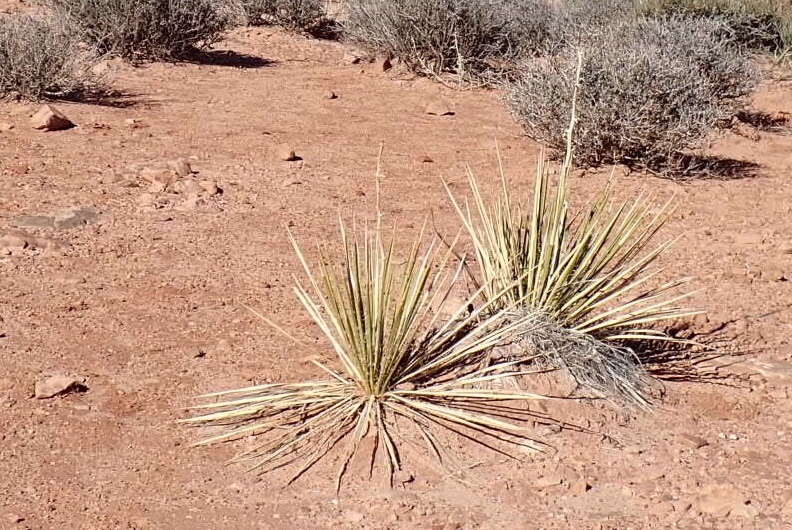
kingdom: Plantae
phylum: Tracheophyta
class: Liliopsida
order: Asparagales
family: Asparagaceae
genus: Yucca
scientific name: Yucca angustissima
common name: Narrowleaf yucca
